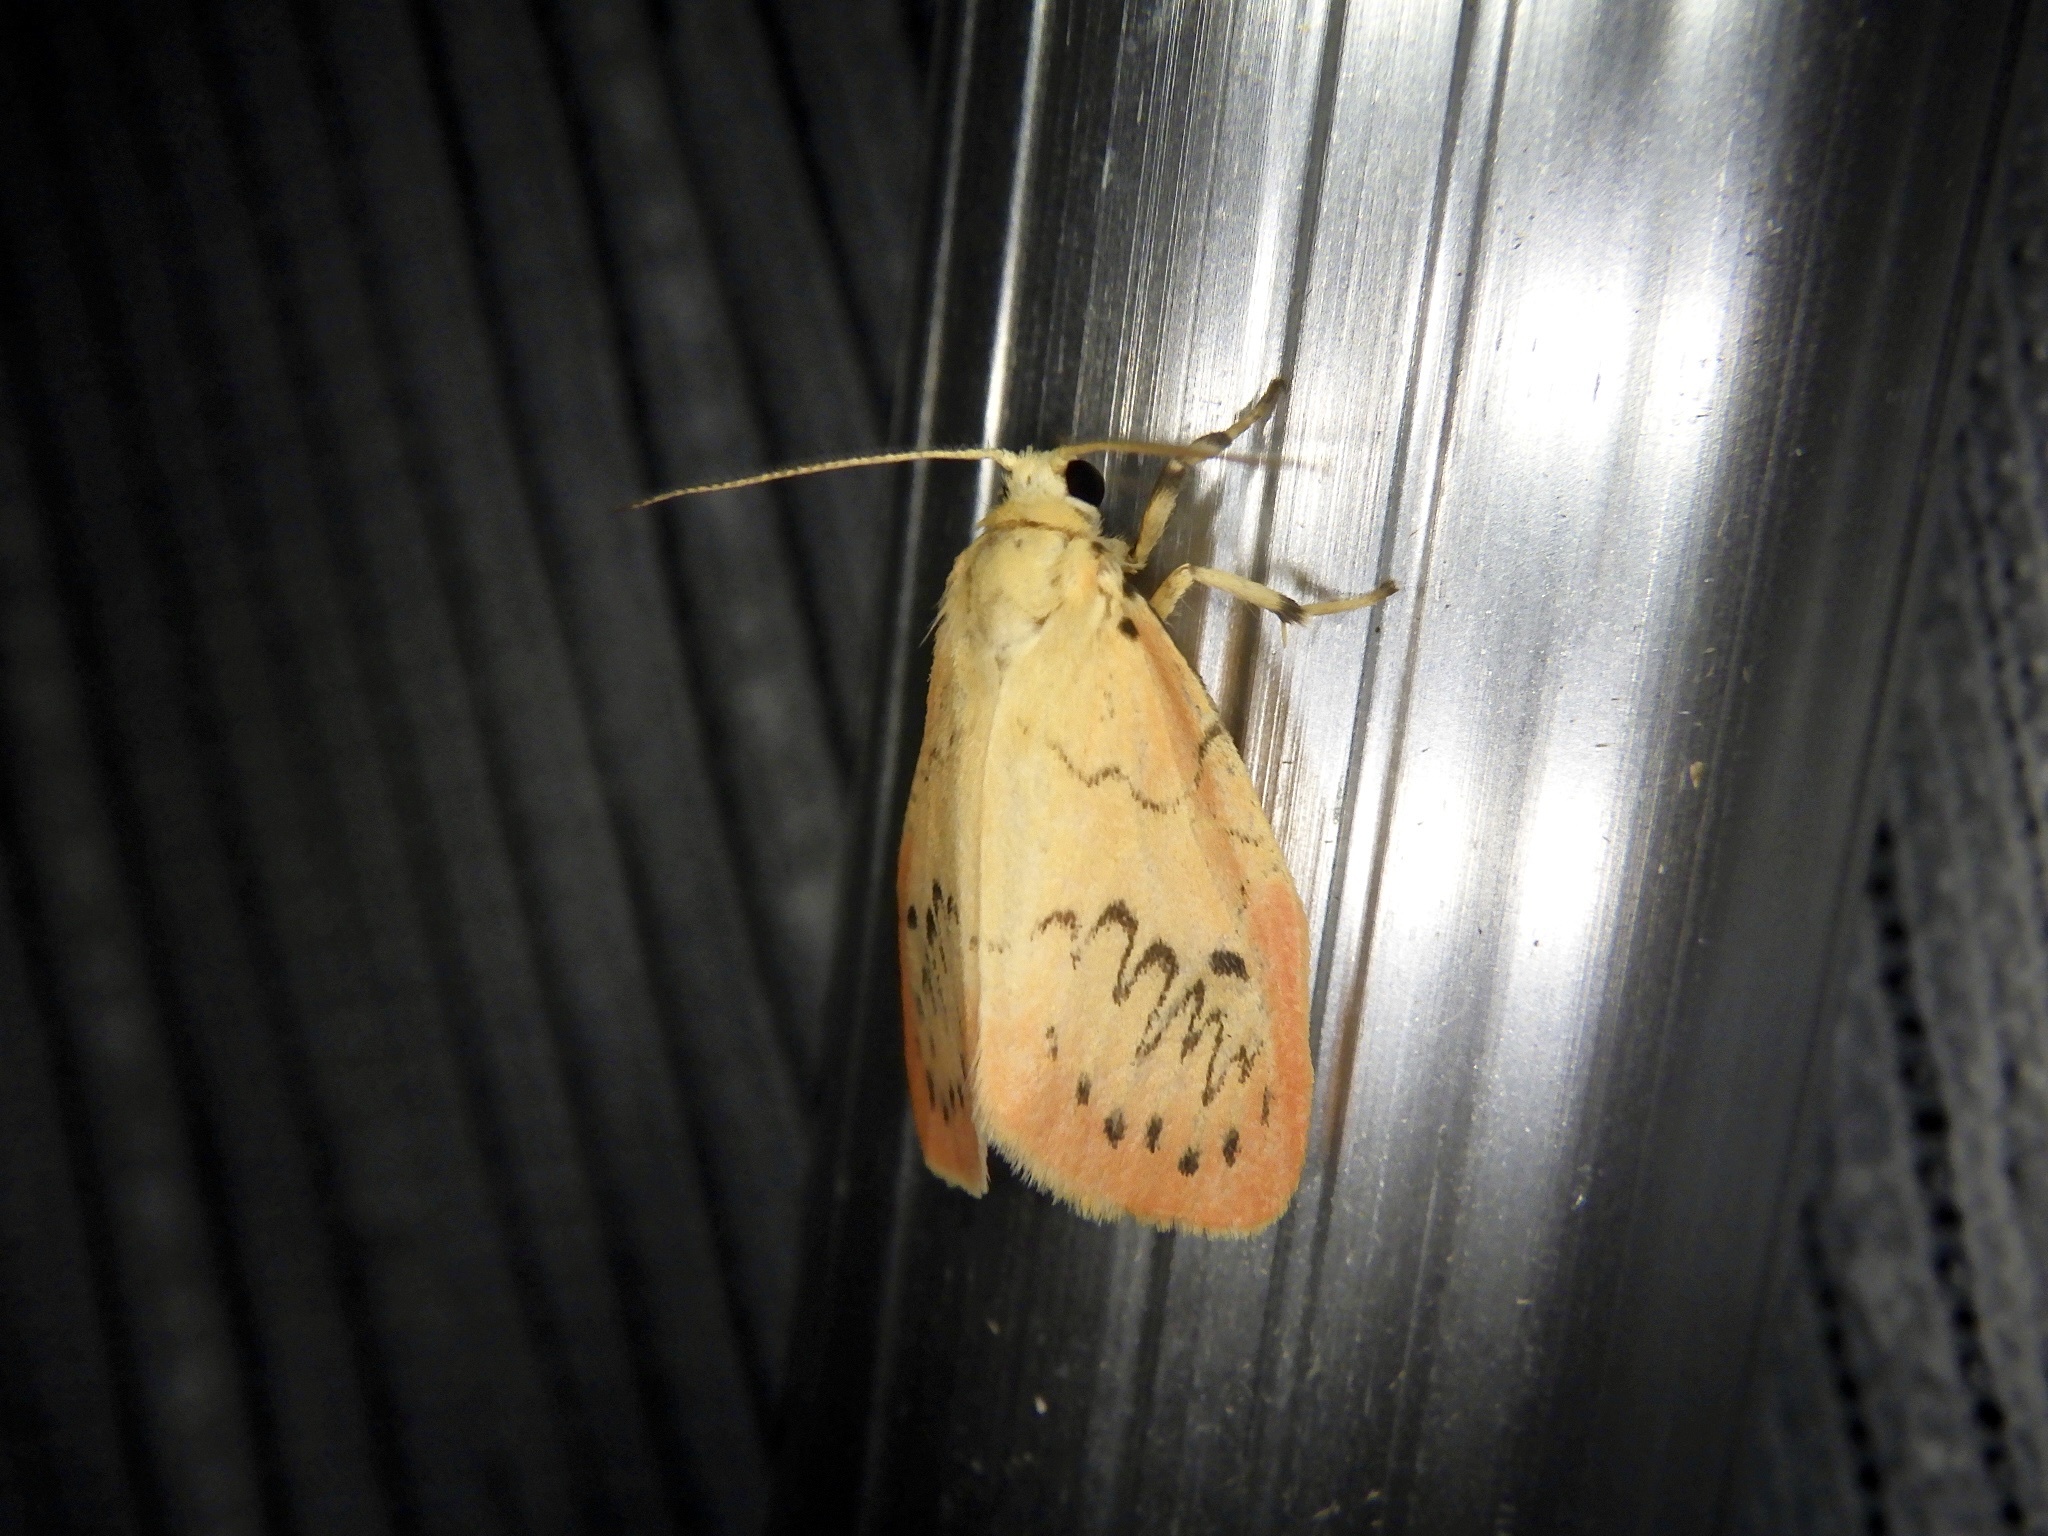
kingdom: Animalia
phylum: Arthropoda
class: Insecta
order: Lepidoptera
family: Erebidae
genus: Miltochrista
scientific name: Miltochrista miniata
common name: Rosy footman
